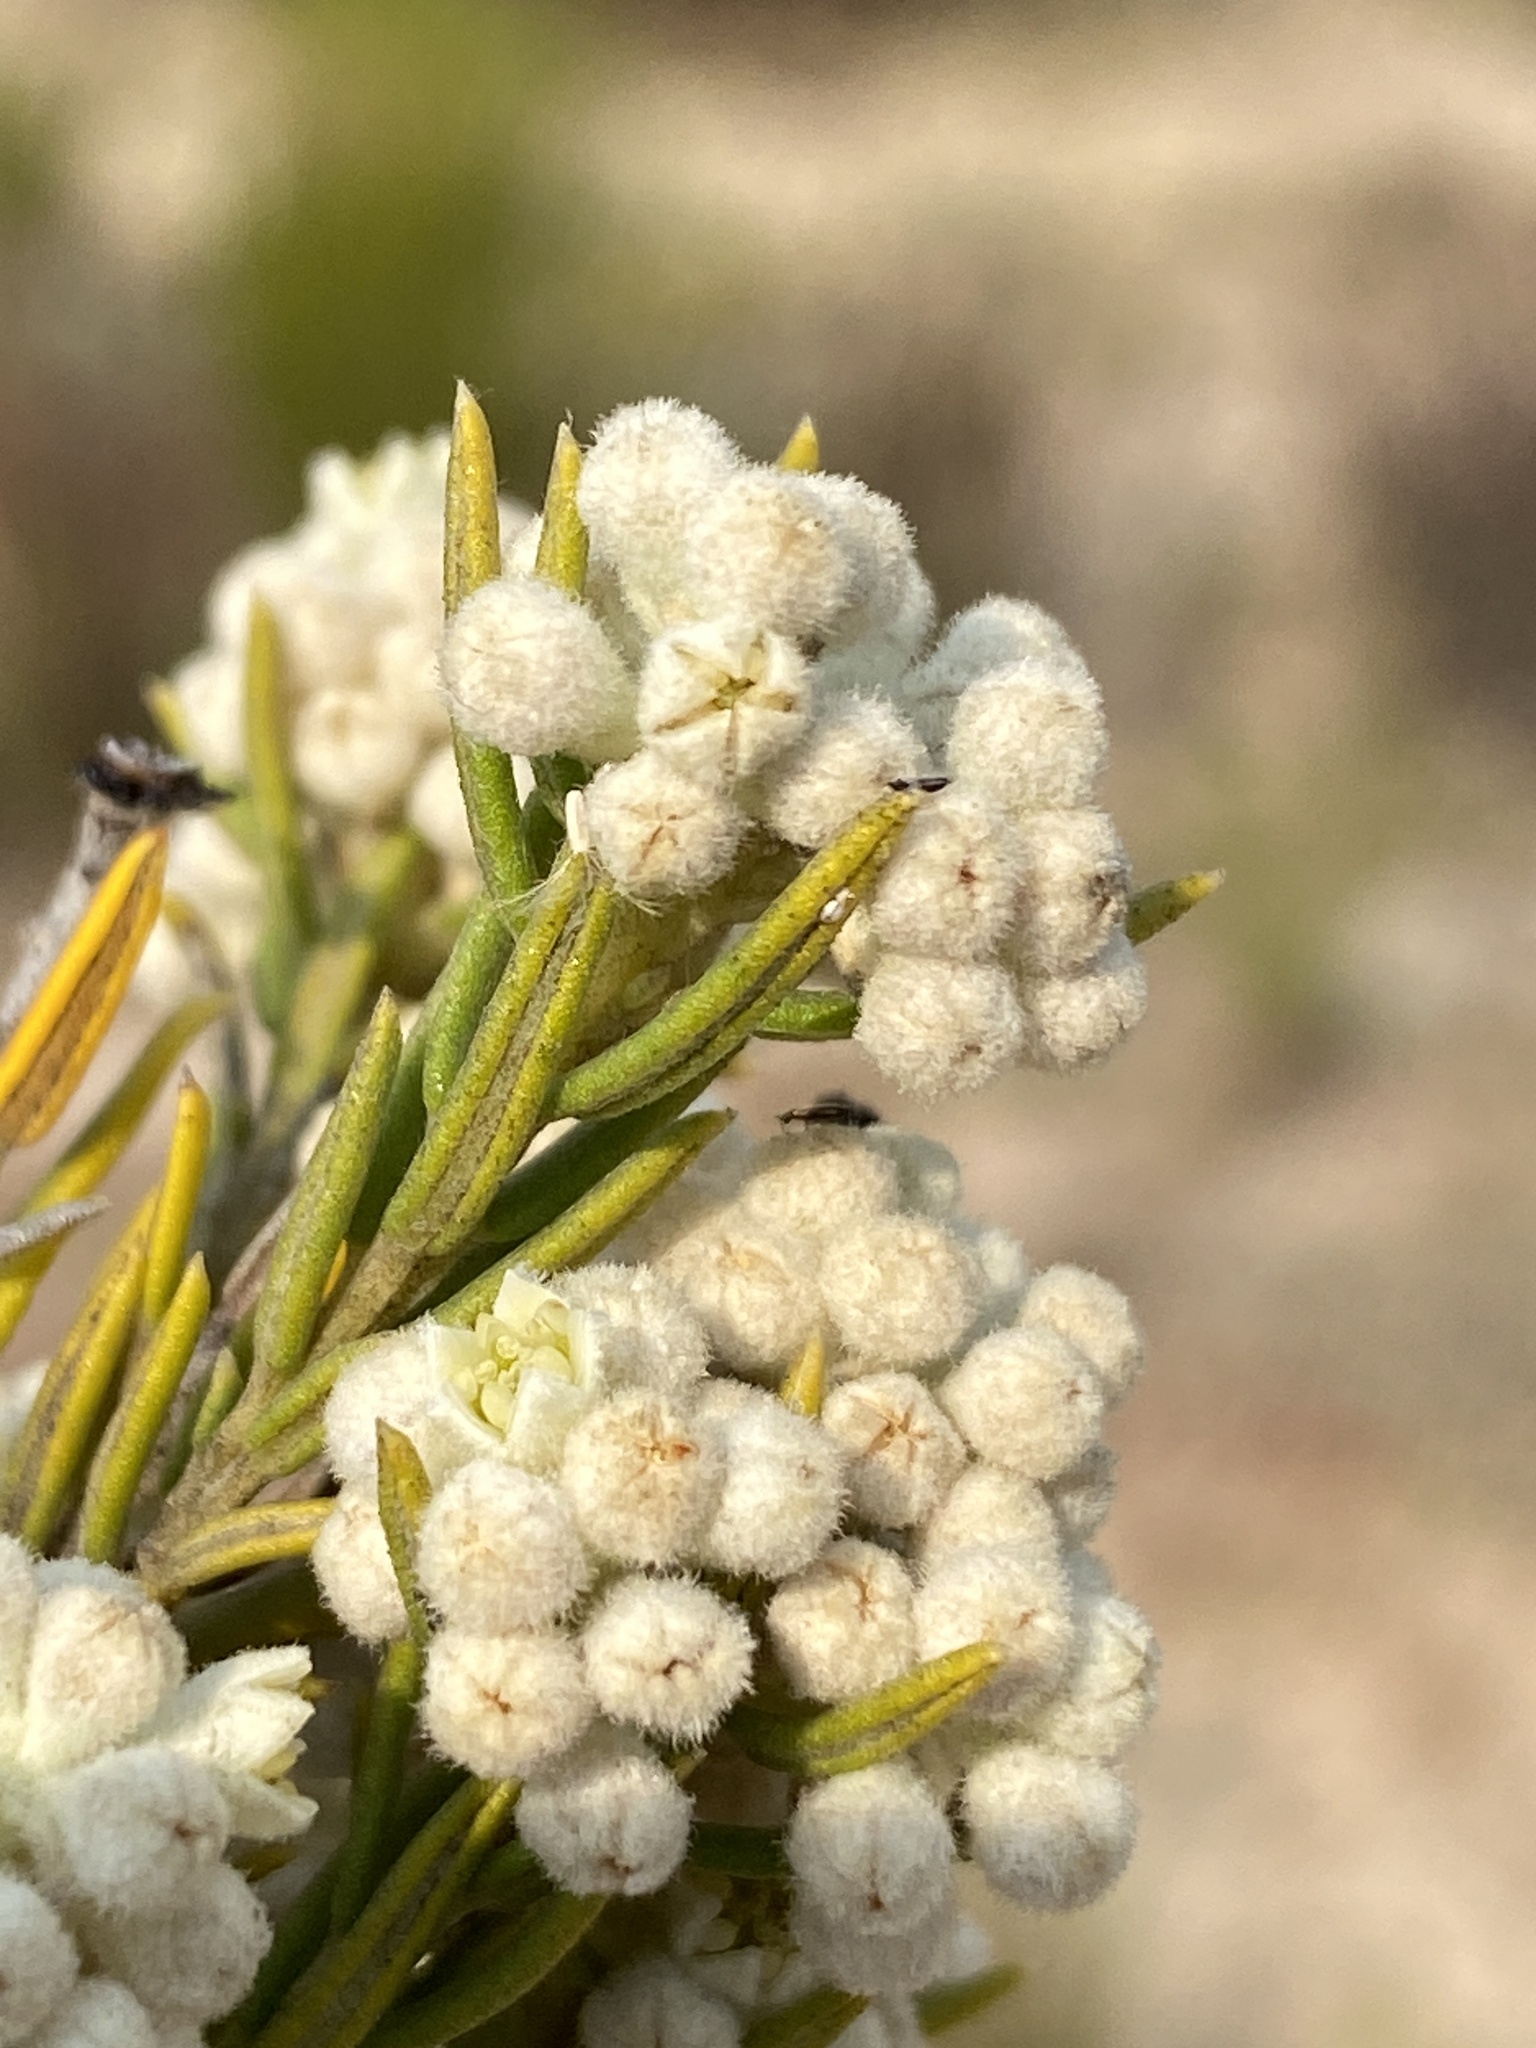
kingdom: Plantae
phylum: Tracheophyta
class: Magnoliopsida
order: Rosales
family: Rhamnaceae
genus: Phylica
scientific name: Phylica rigidifolia
